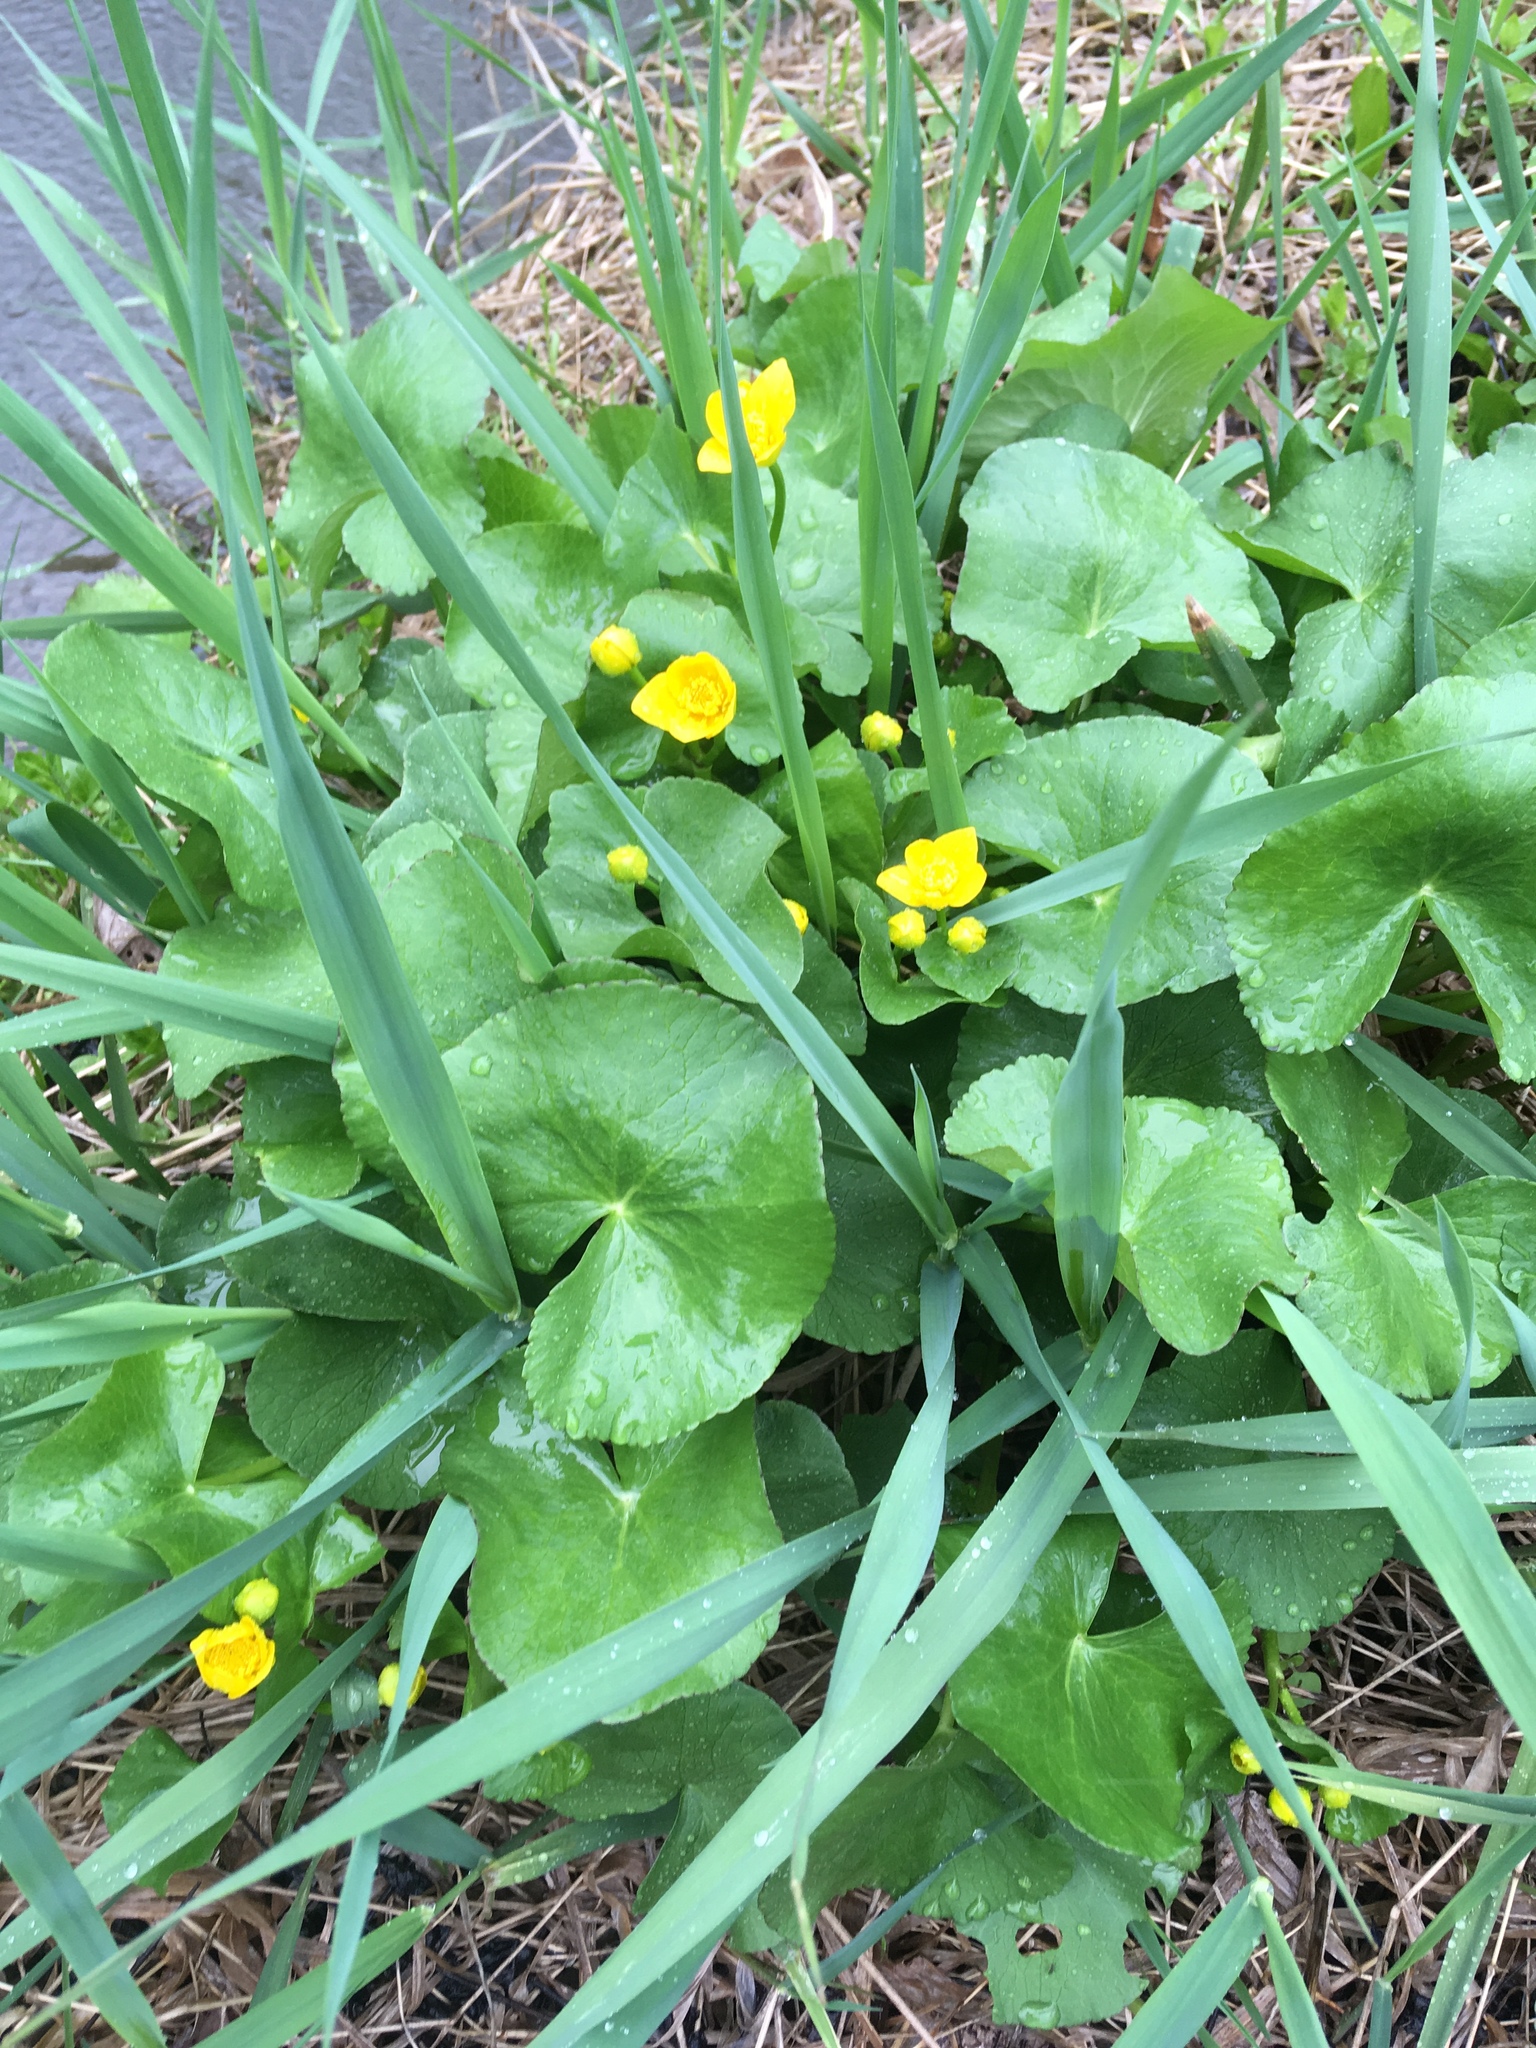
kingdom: Plantae
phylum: Tracheophyta
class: Magnoliopsida
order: Ranunculales
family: Ranunculaceae
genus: Caltha
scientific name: Caltha palustris
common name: Marsh marigold
